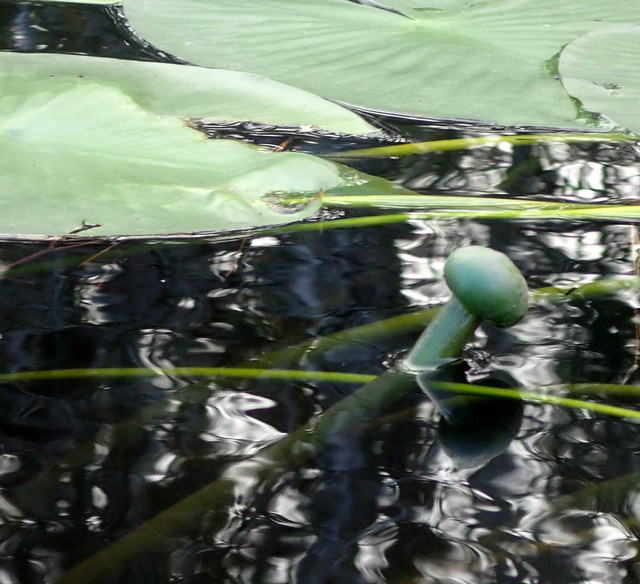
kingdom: Plantae
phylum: Tracheophyta
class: Magnoliopsida
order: Nymphaeales
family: Nymphaeaceae
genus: Nuphar
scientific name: Nuphar advena
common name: Spatter-dock
